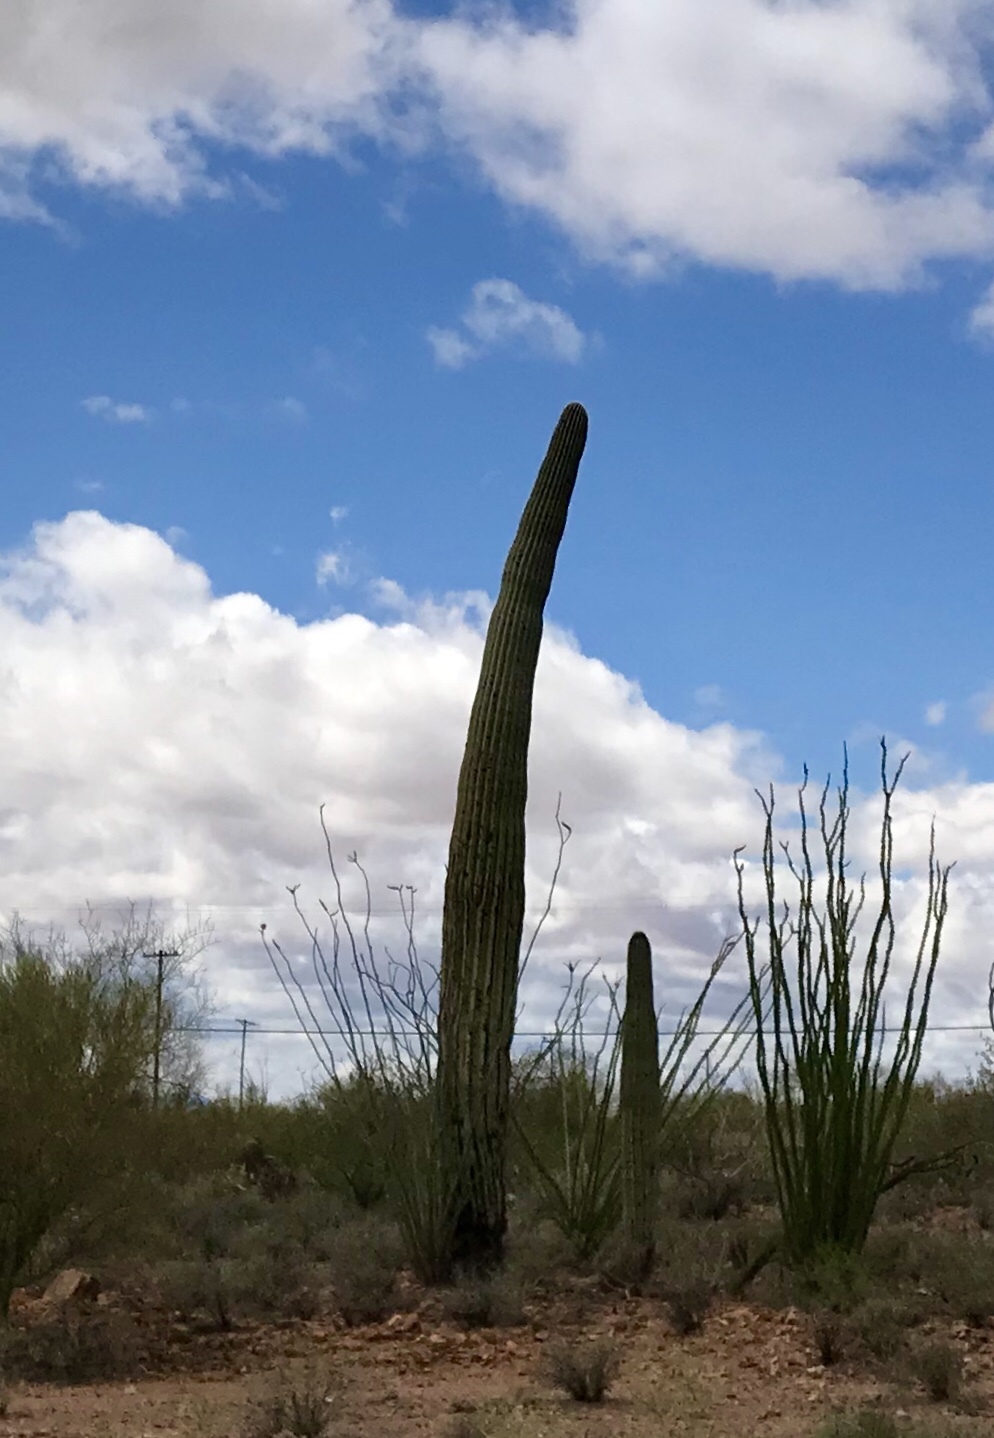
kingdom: Plantae
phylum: Tracheophyta
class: Magnoliopsida
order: Caryophyllales
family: Cactaceae
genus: Carnegiea
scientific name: Carnegiea gigantea
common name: Saguaro
